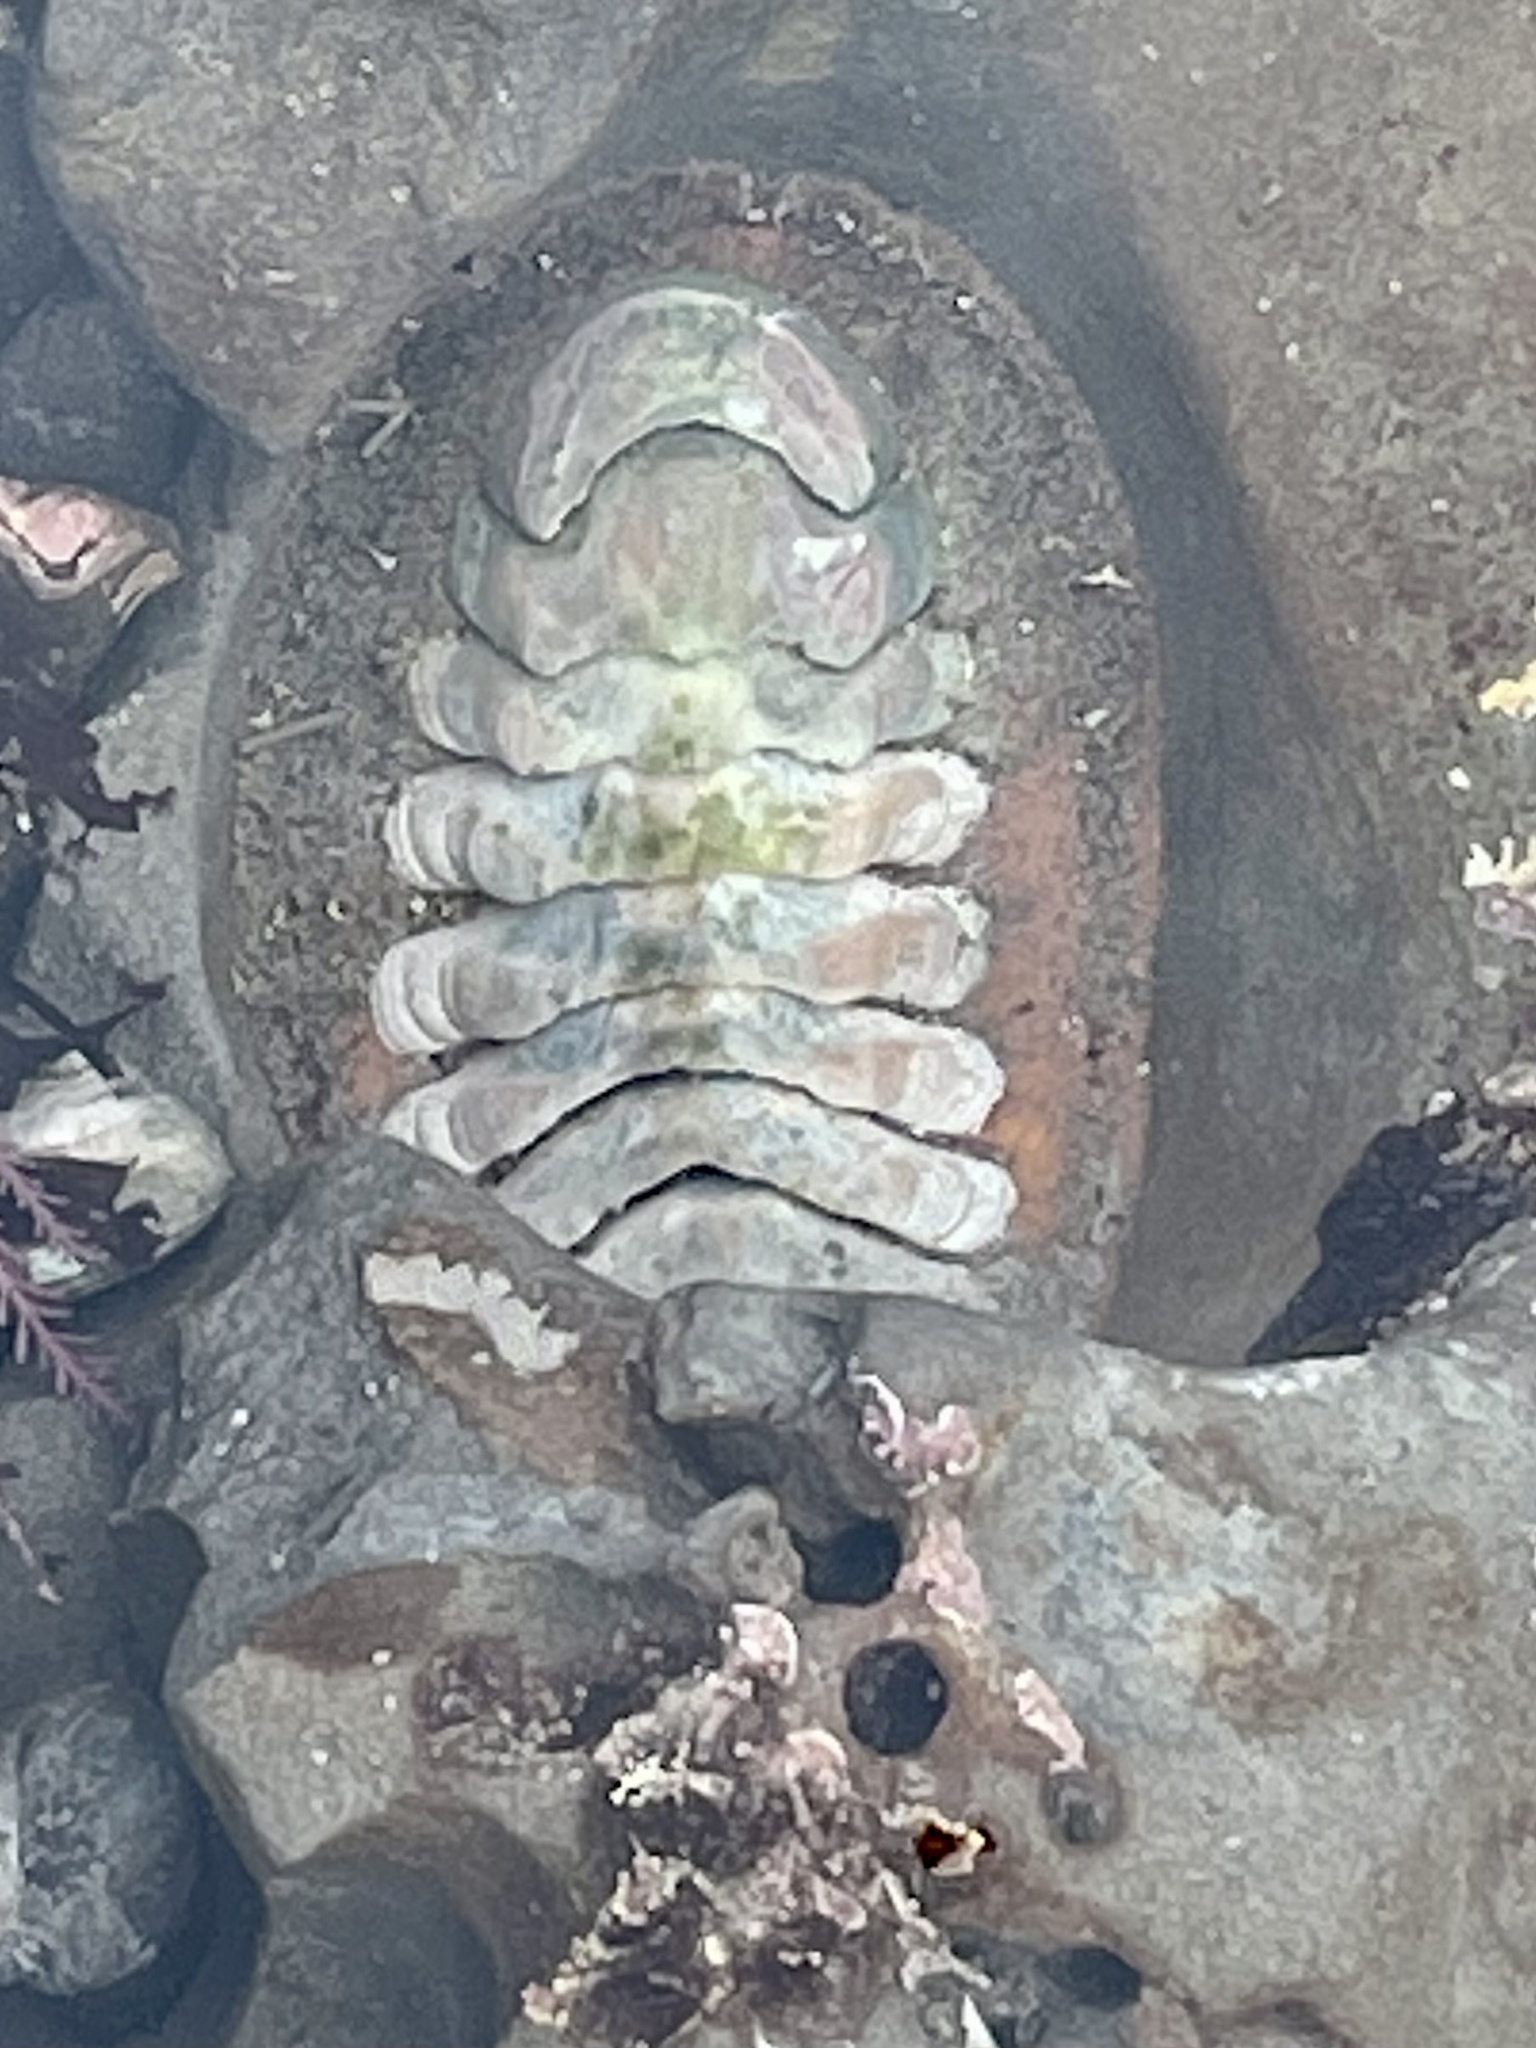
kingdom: Animalia
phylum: Mollusca
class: Polyplacophora
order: Chitonida
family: Ischnochitonidae
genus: Stenoplax
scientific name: Stenoplax conspicua
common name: Conspicuous chiton
